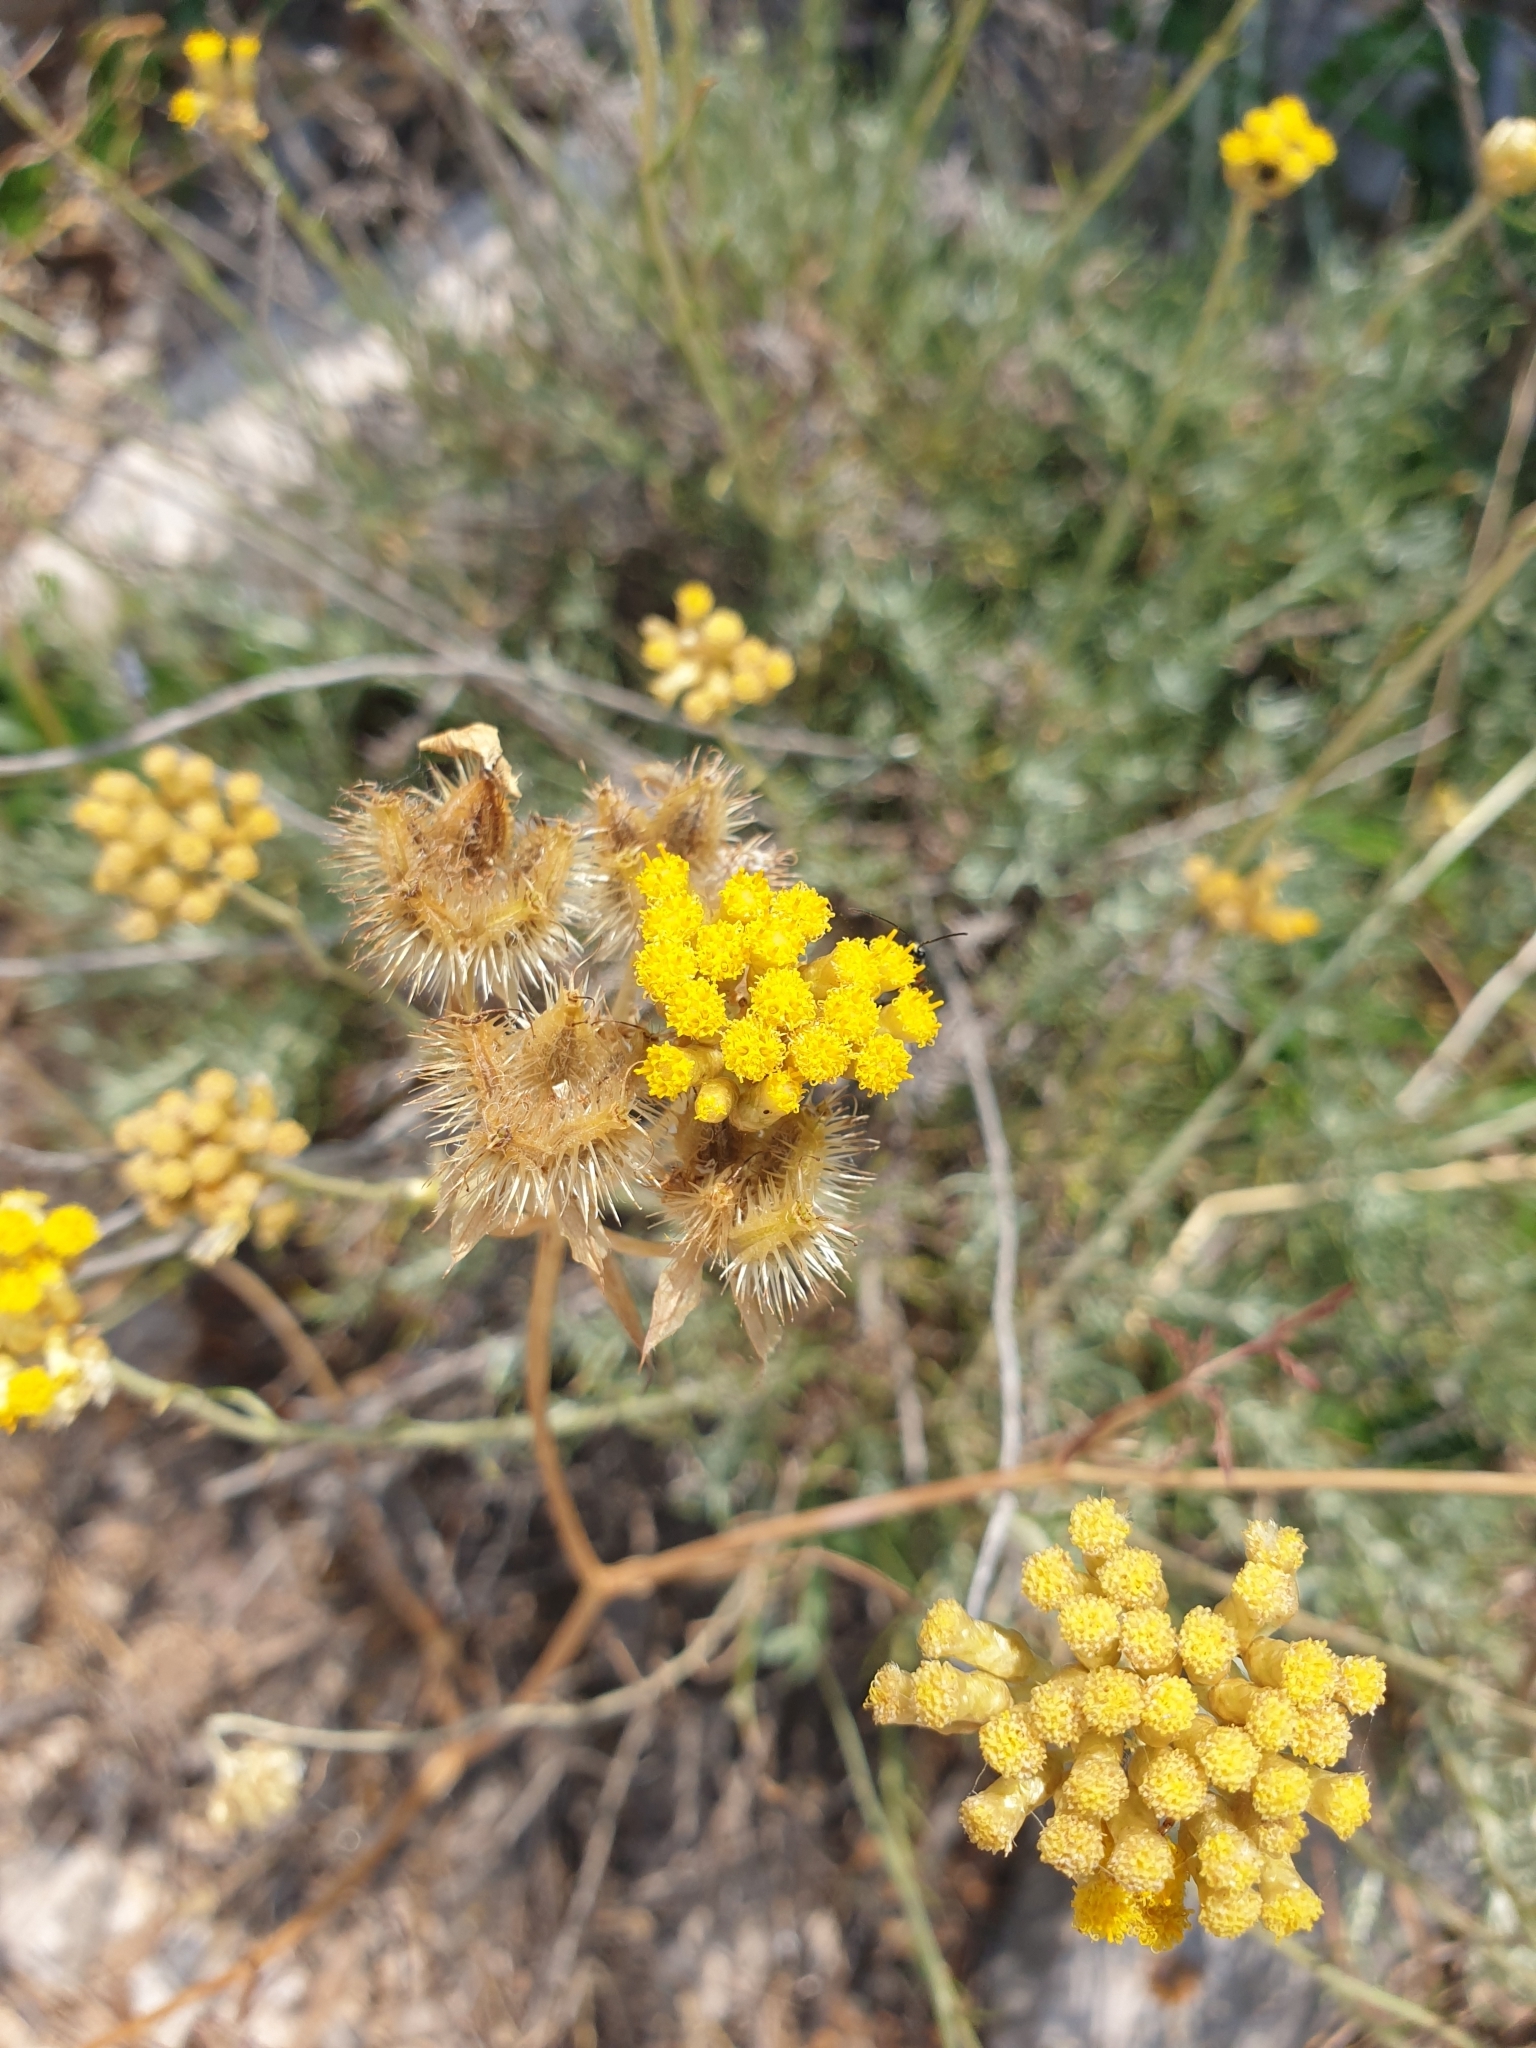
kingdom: Plantae
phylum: Tracheophyta
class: Magnoliopsida
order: Asterales
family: Asteraceae
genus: Helichrysum
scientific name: Helichrysum italicum
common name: Curryplant
